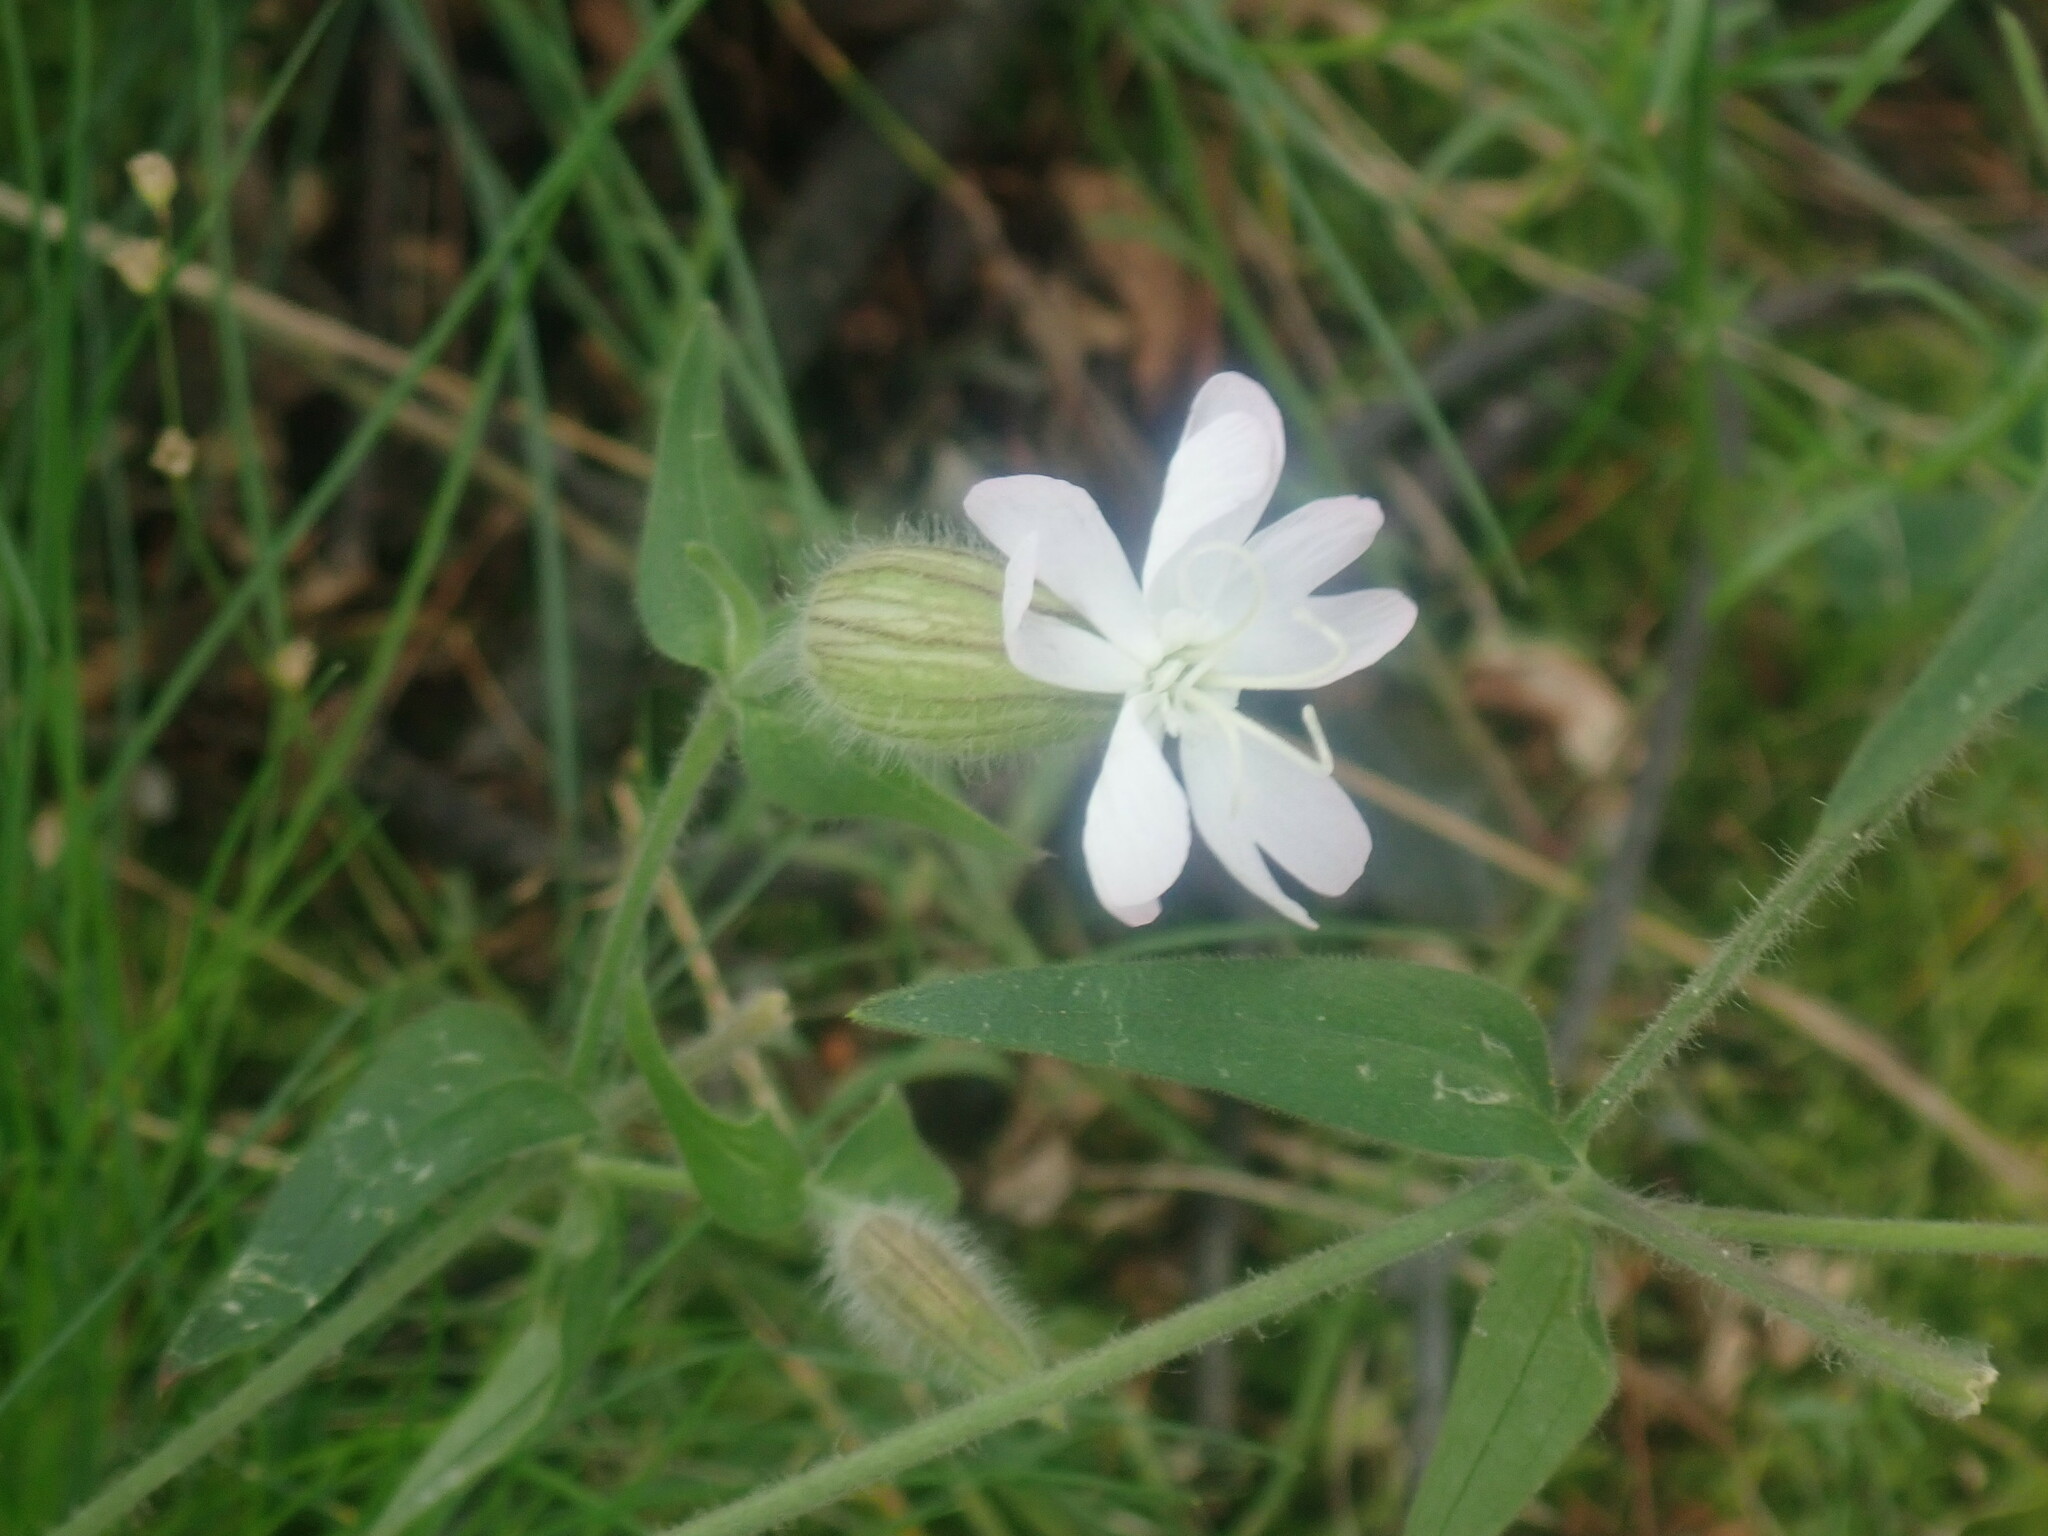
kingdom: Plantae
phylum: Tracheophyta
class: Magnoliopsida
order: Caryophyllales
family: Caryophyllaceae
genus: Silene
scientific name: Silene latifolia
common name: White campion
